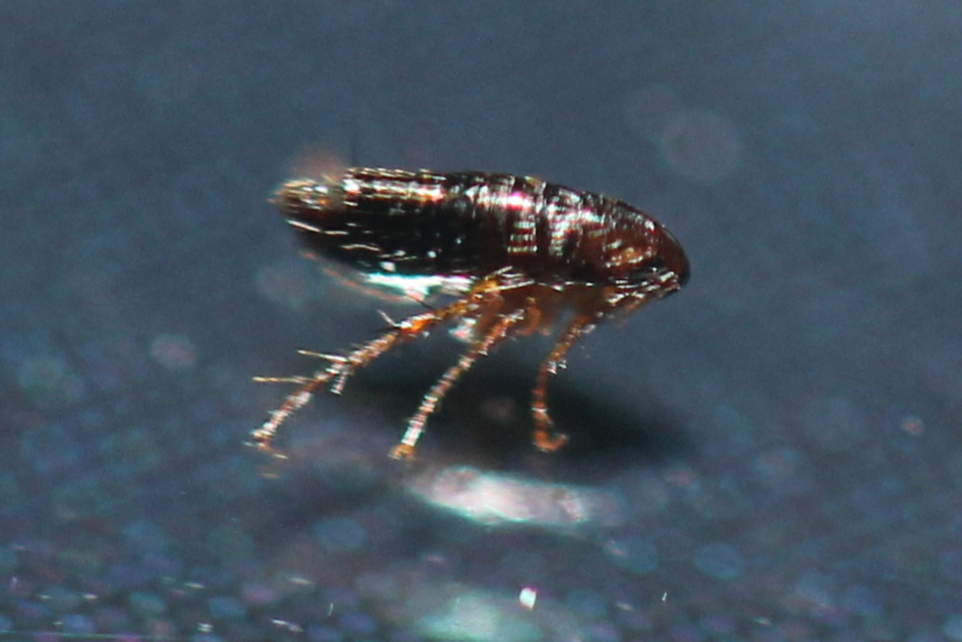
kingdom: Animalia
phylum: Arthropoda
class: Insecta
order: Siphonaptera
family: Pulicidae
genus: Ctenocephalides
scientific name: Ctenocephalides felis
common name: Cat flea
